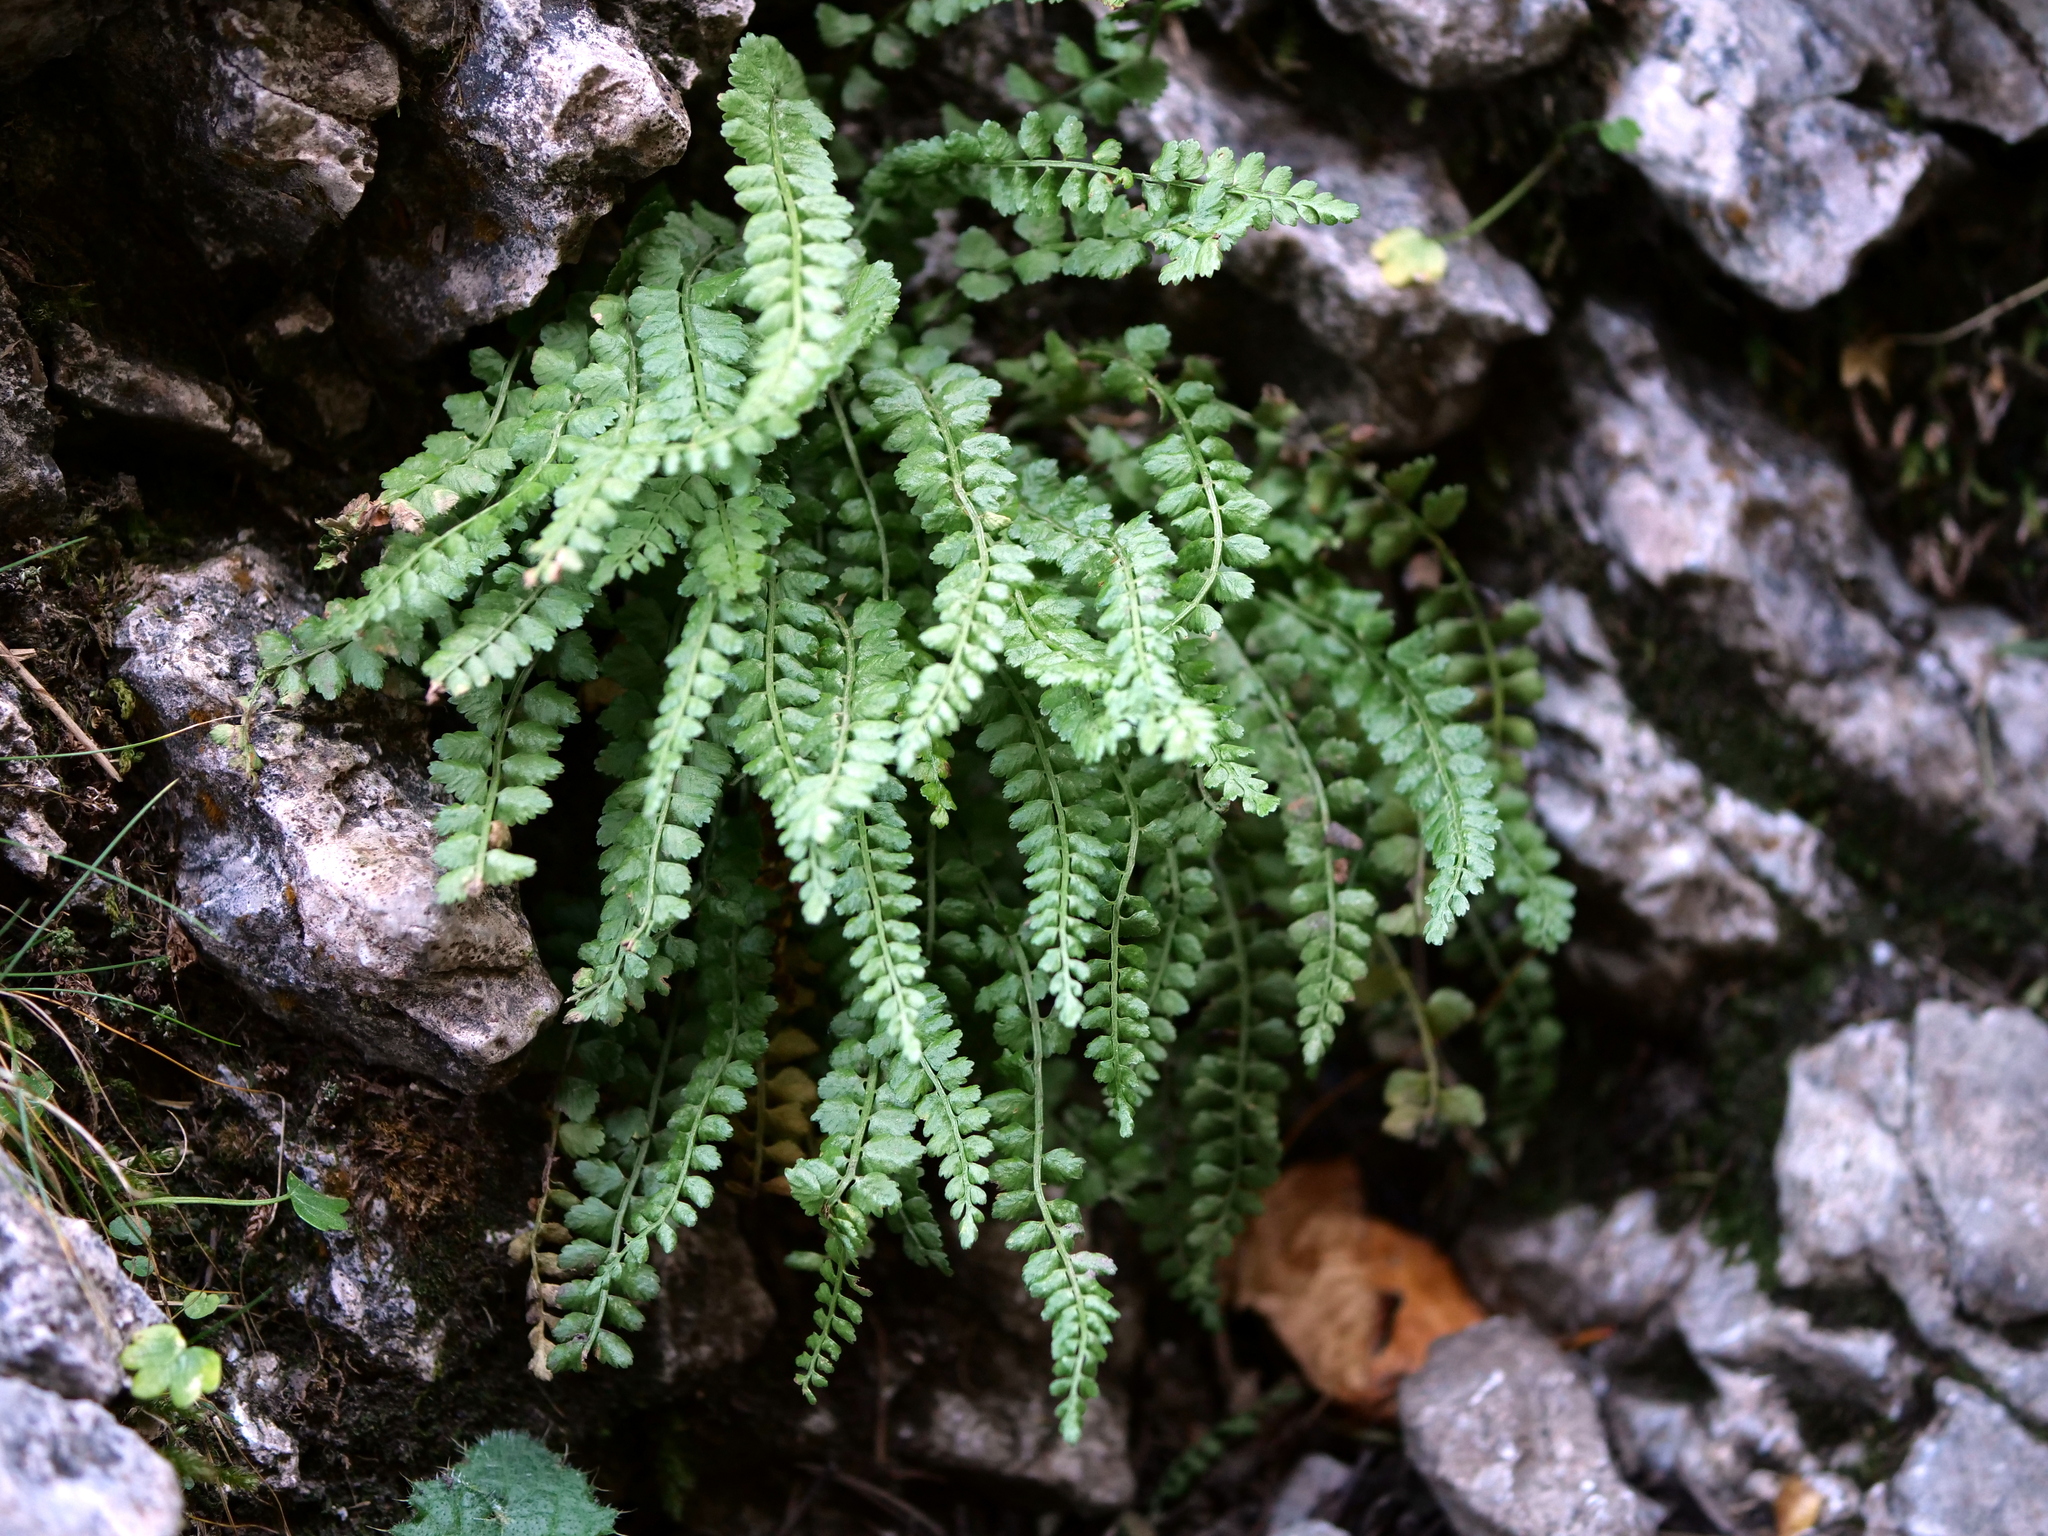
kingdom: Plantae
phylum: Tracheophyta
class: Polypodiopsida
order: Polypodiales
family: Aspleniaceae
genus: Asplenium
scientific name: Asplenium viride
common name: Green spleenwort
